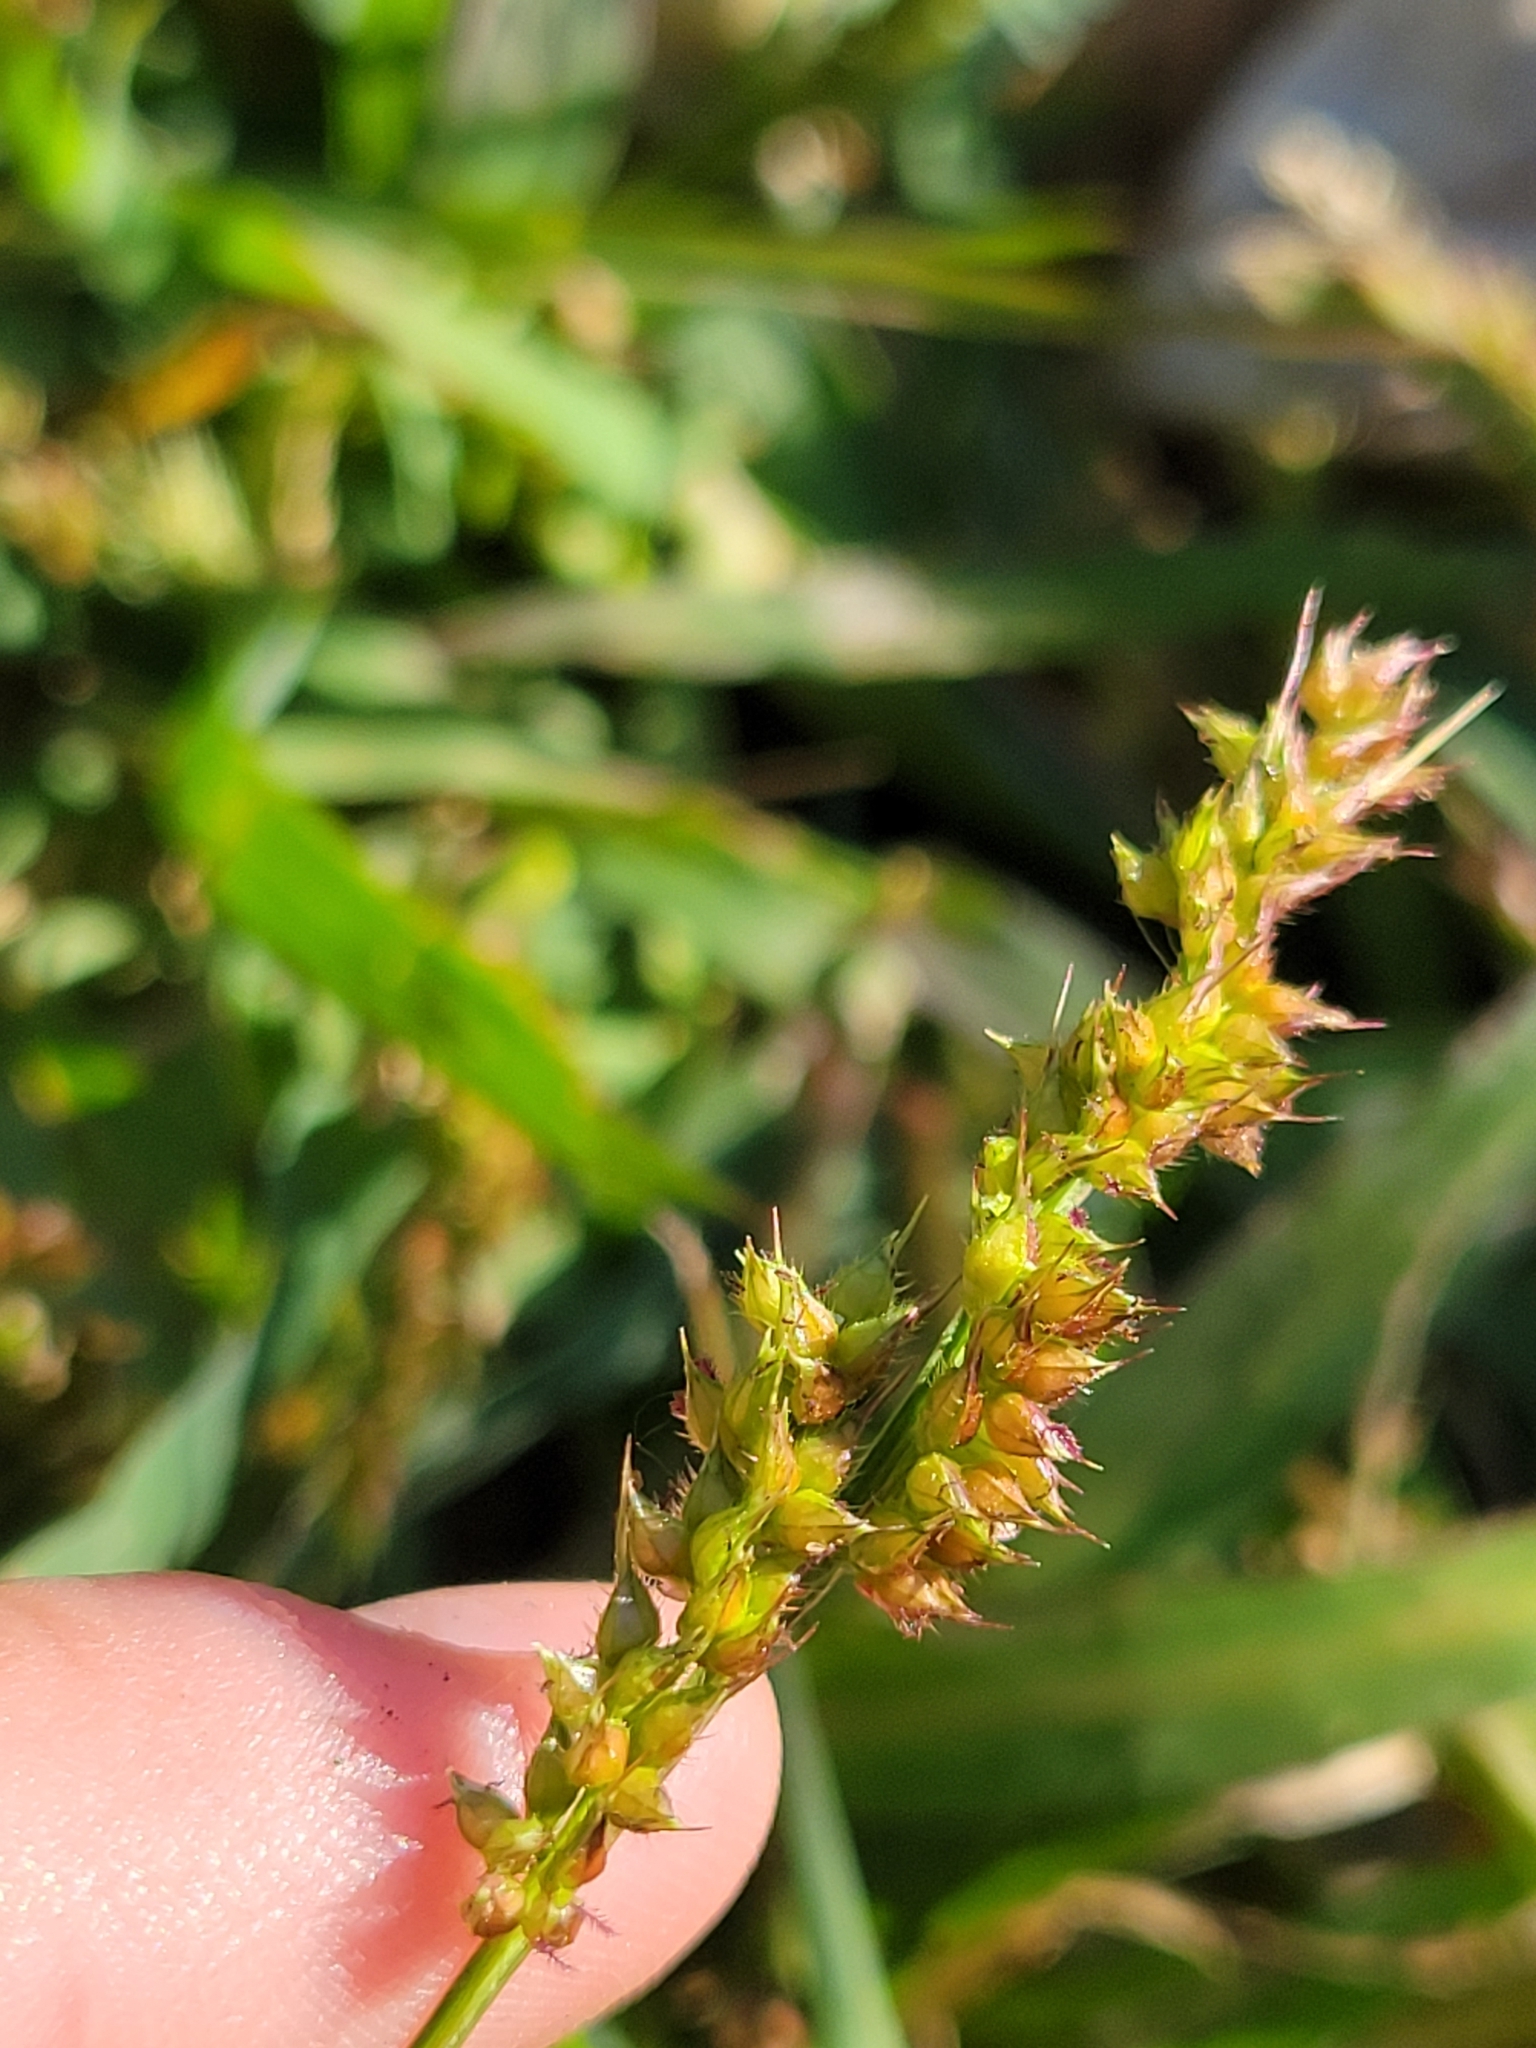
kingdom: Plantae
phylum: Tracheophyta
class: Liliopsida
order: Poales
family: Poaceae
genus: Echinochloa
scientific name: Echinochloa crus-galli
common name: Cockspur
